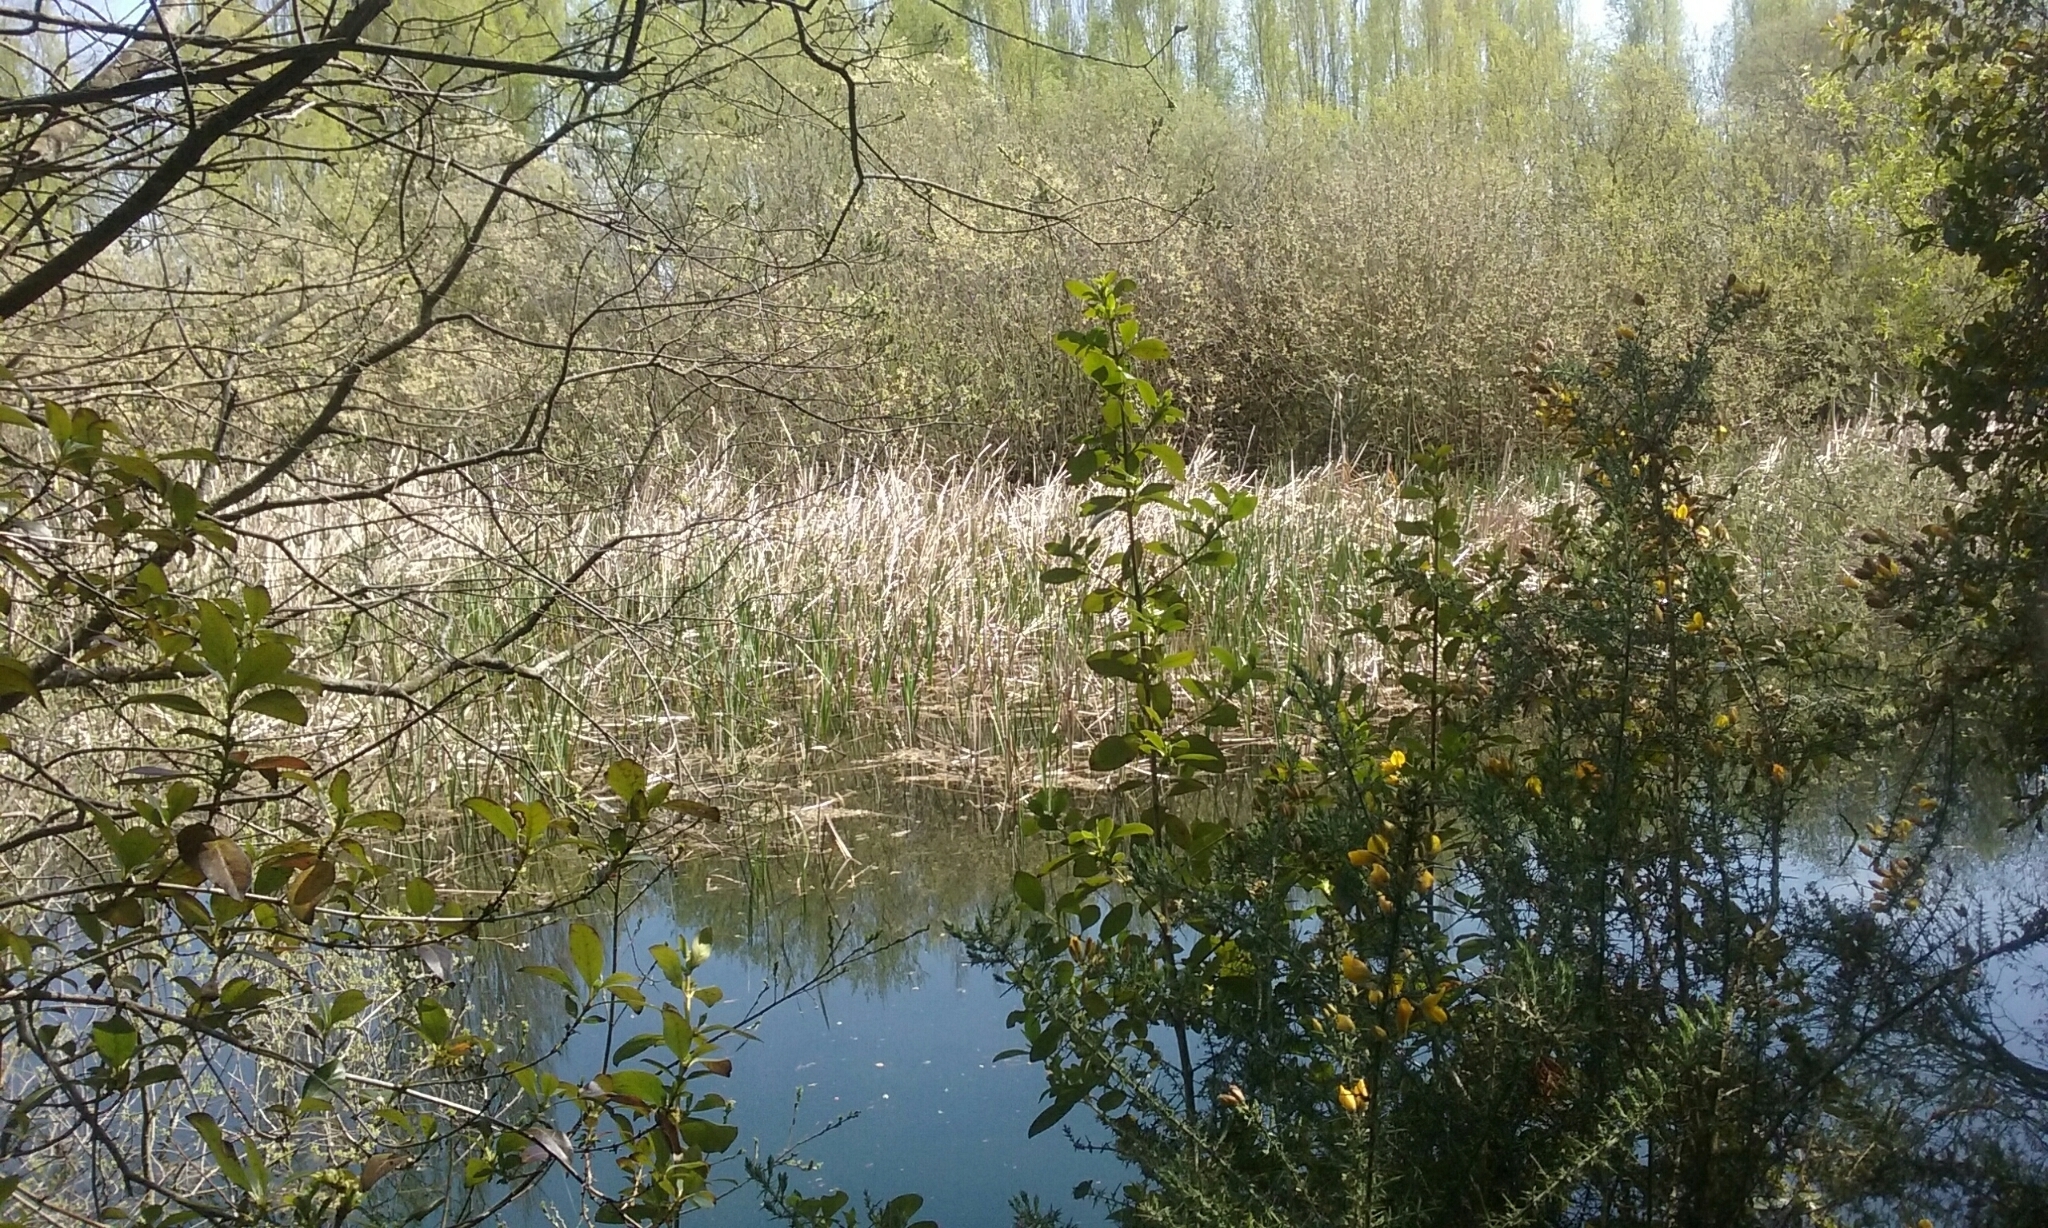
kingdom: Plantae
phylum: Tracheophyta
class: Liliopsida
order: Poales
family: Typhaceae
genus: Typha
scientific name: Typha orientalis
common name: Bullrush
